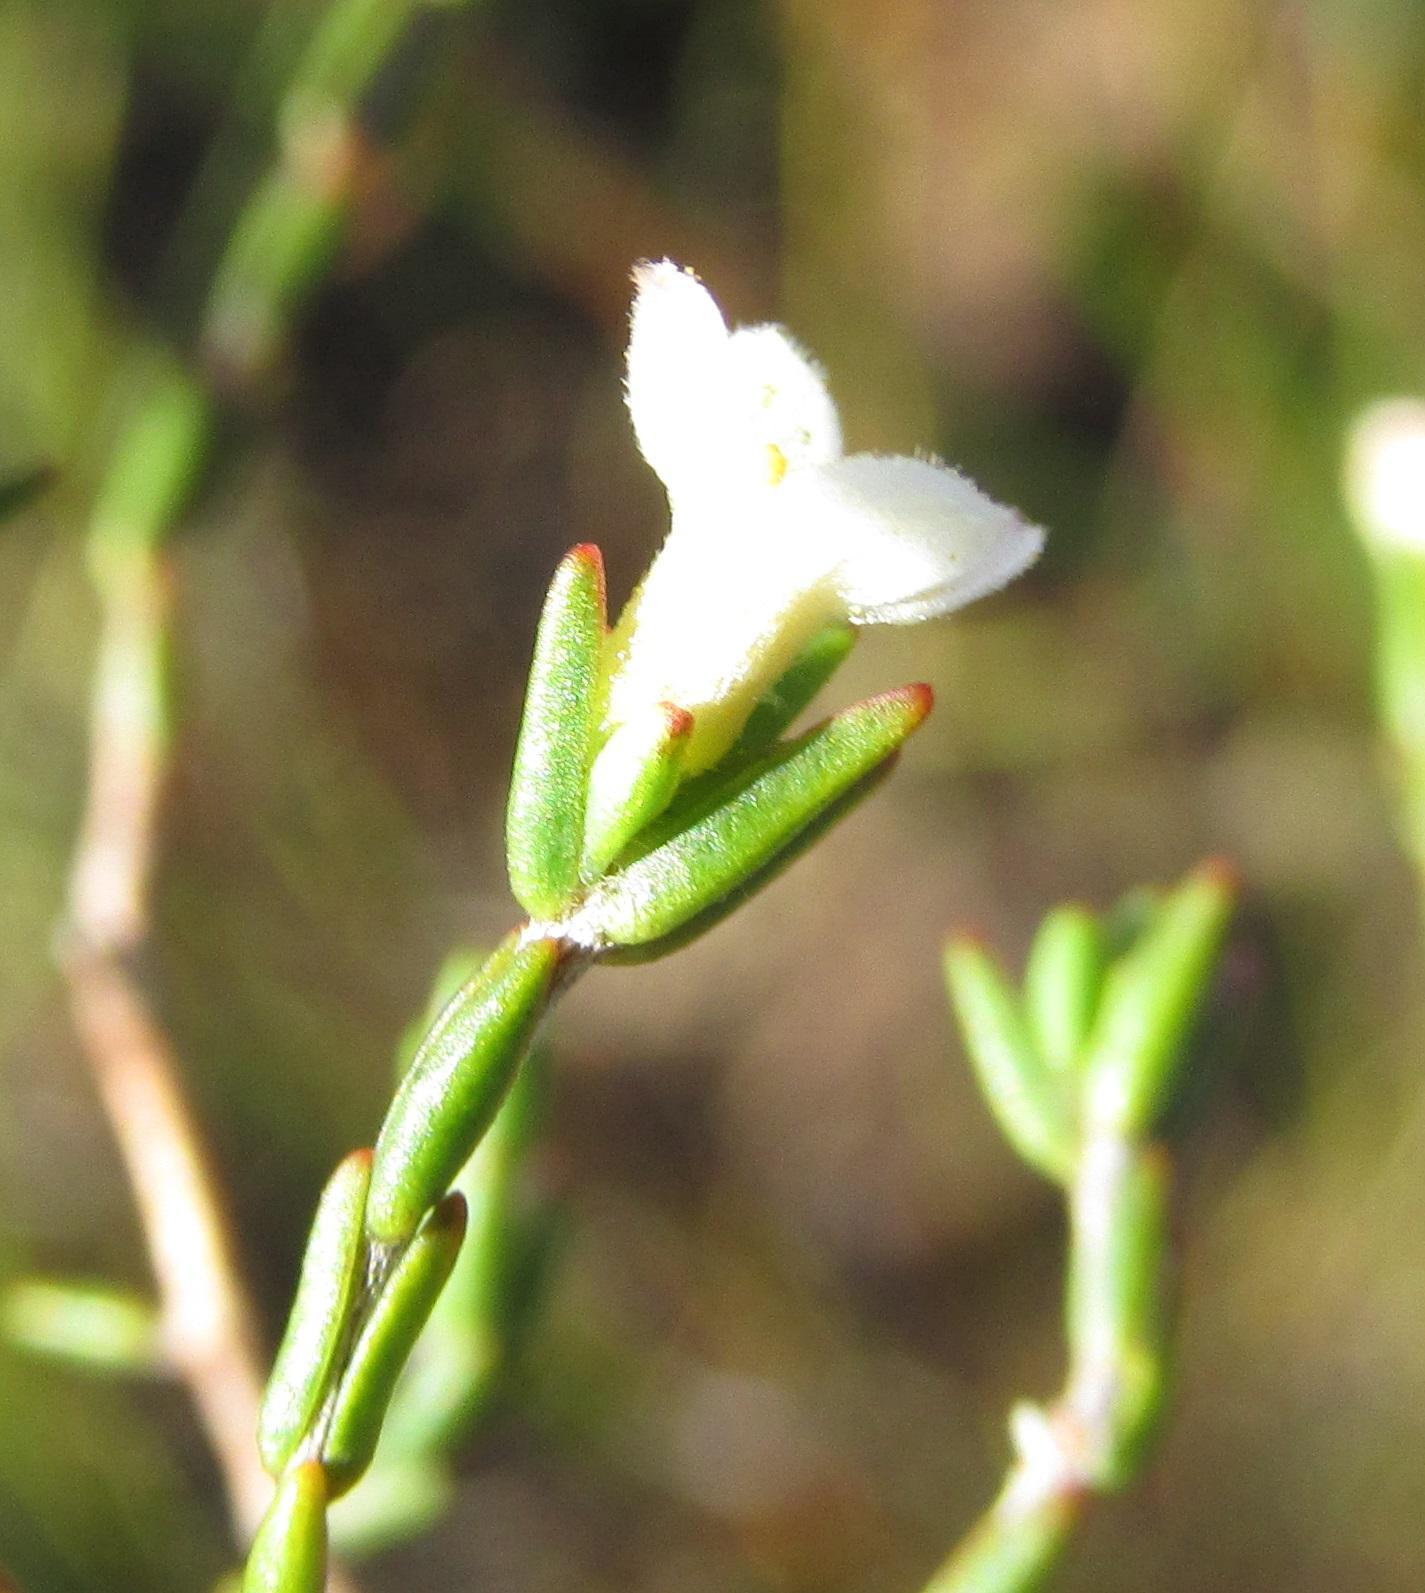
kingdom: Plantae
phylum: Tracheophyta
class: Magnoliopsida
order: Malvales
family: Thymelaeaceae
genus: Lachnaea
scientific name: Lachnaea pusilla
